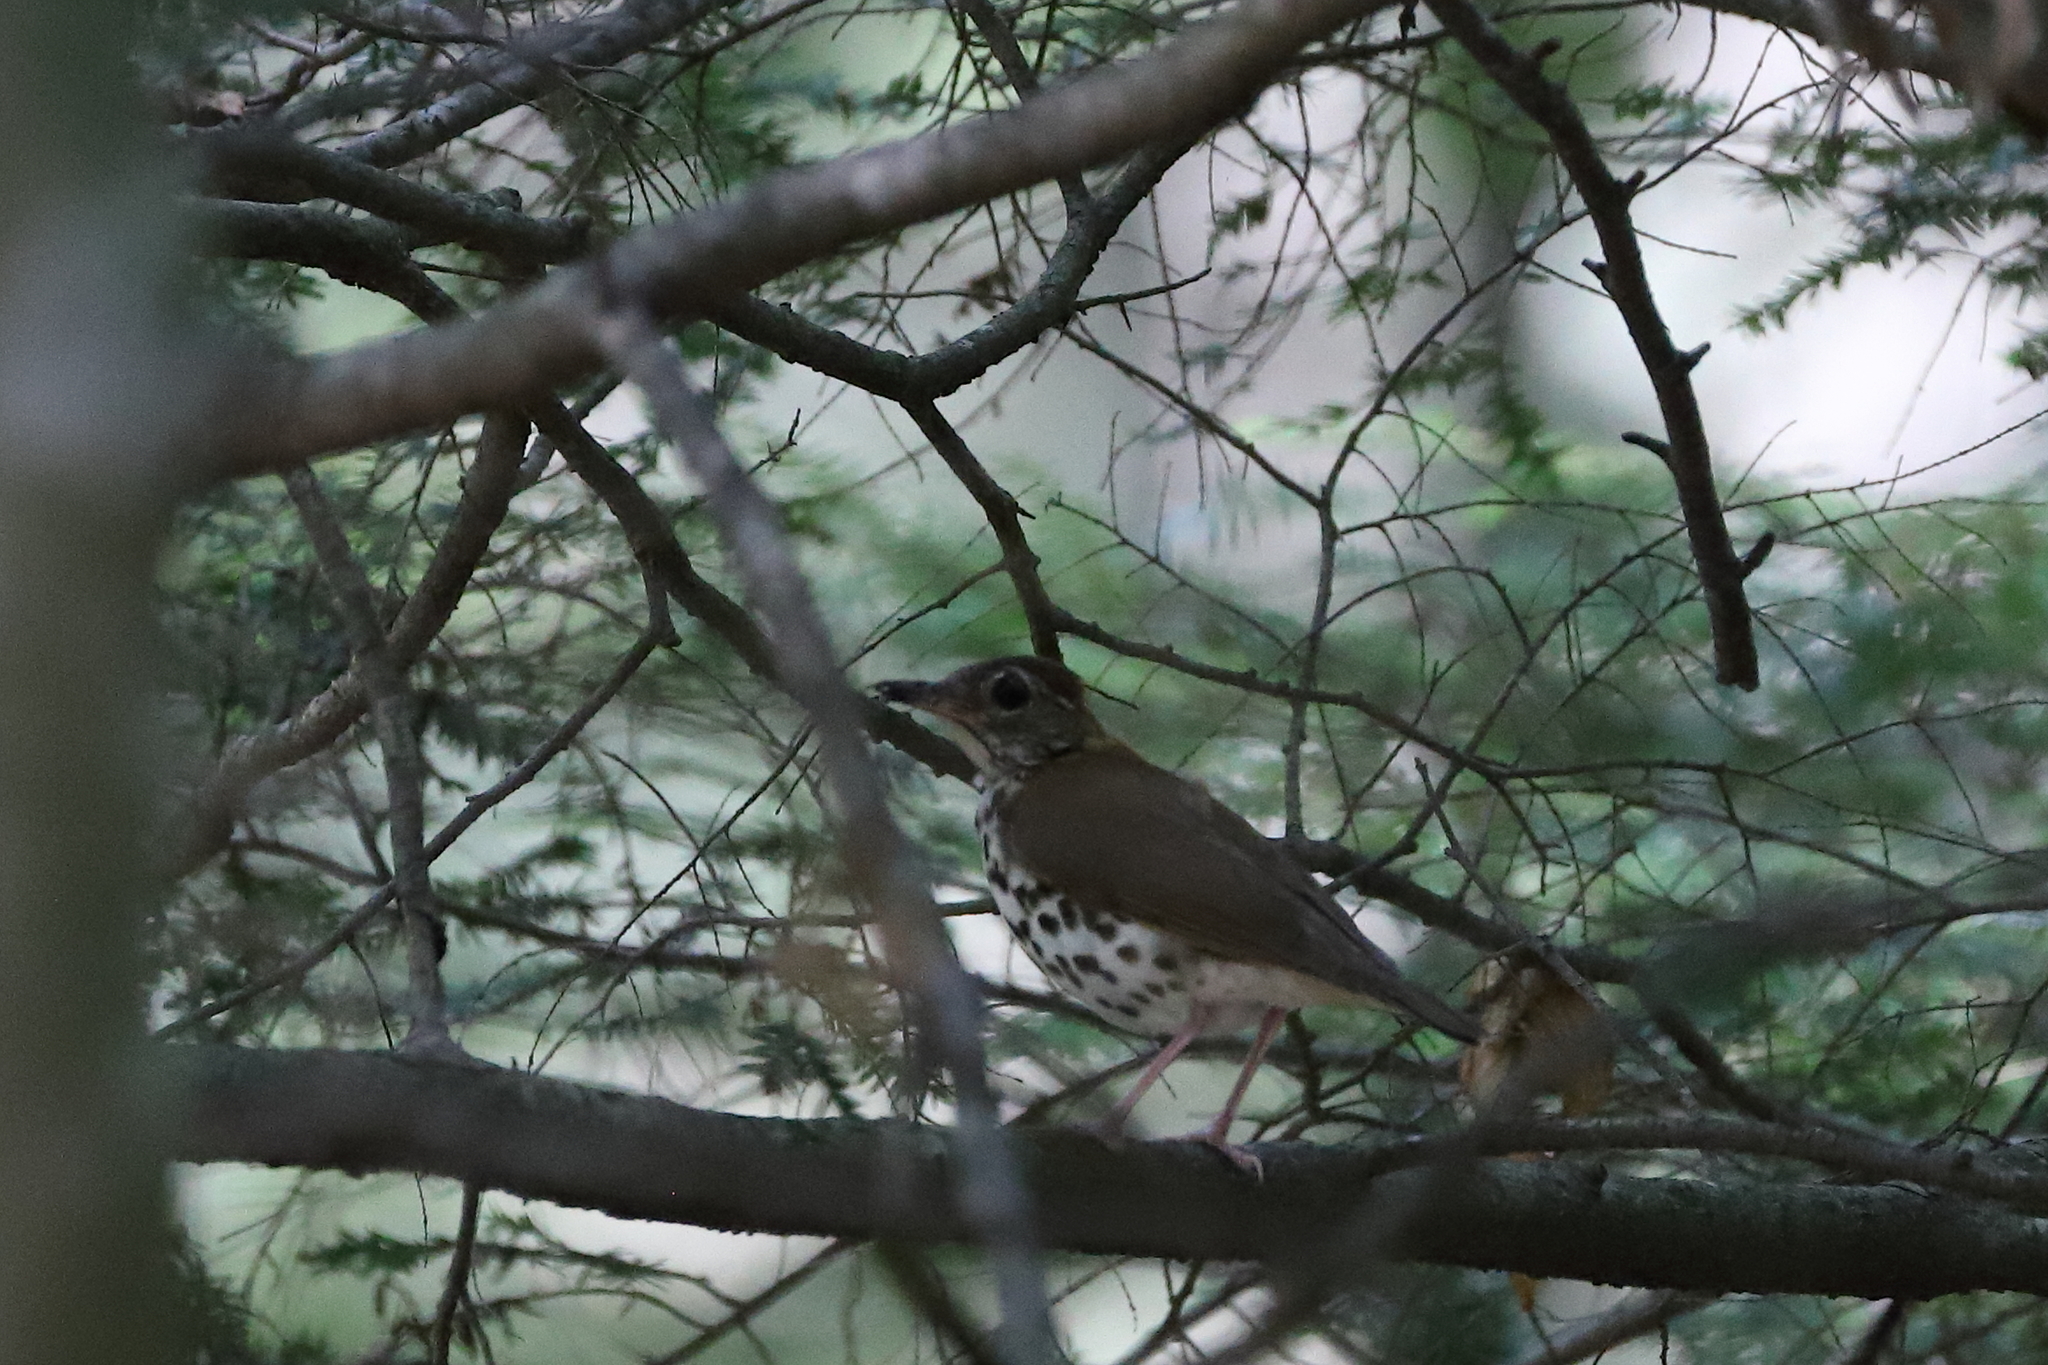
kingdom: Animalia
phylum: Chordata
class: Aves
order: Passeriformes
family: Turdidae
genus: Hylocichla
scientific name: Hylocichla mustelina
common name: Wood thrush
